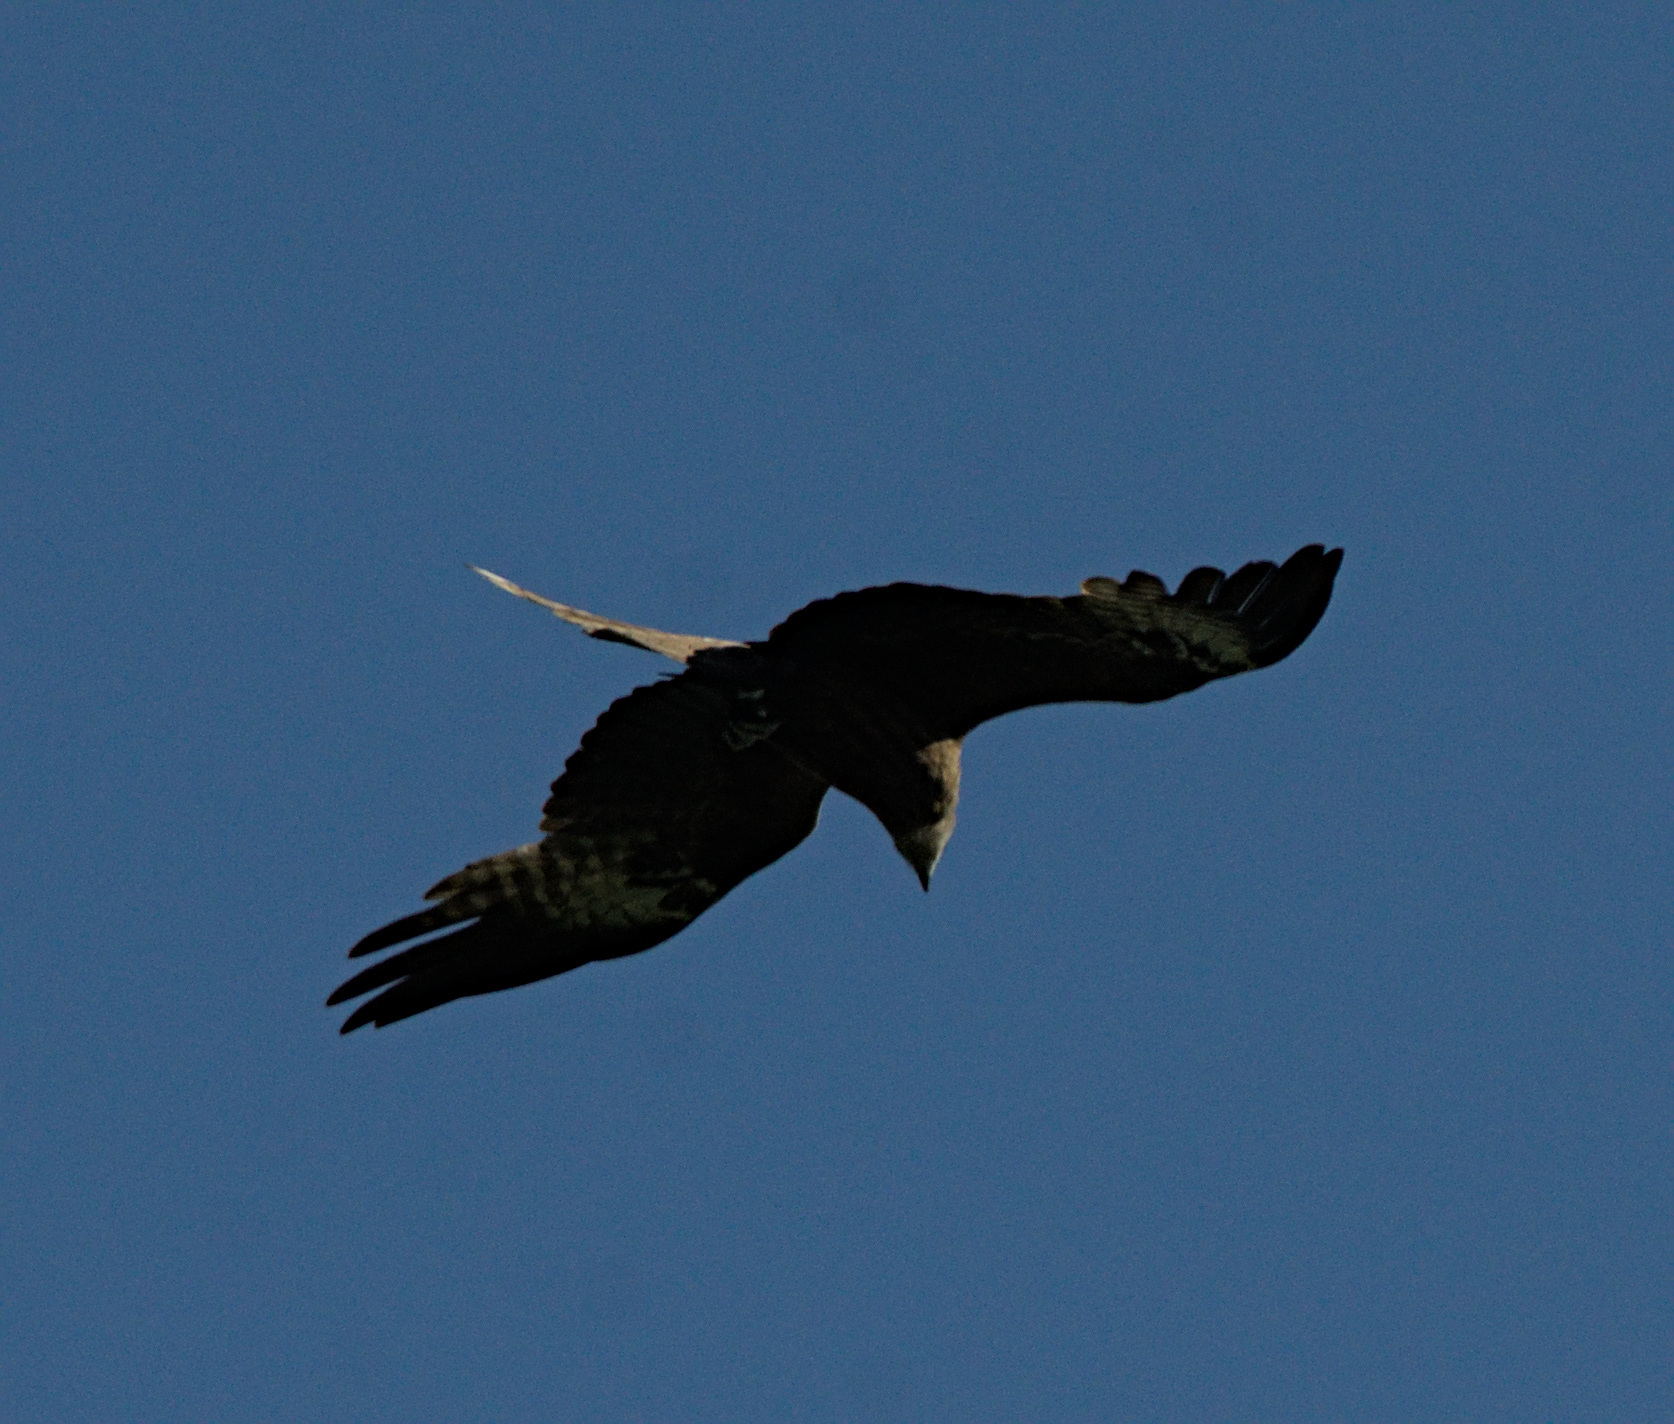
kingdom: Animalia
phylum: Chordata
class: Aves
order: Accipitriformes
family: Accipitridae
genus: Milvus
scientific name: Milvus migrans
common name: Black kite
